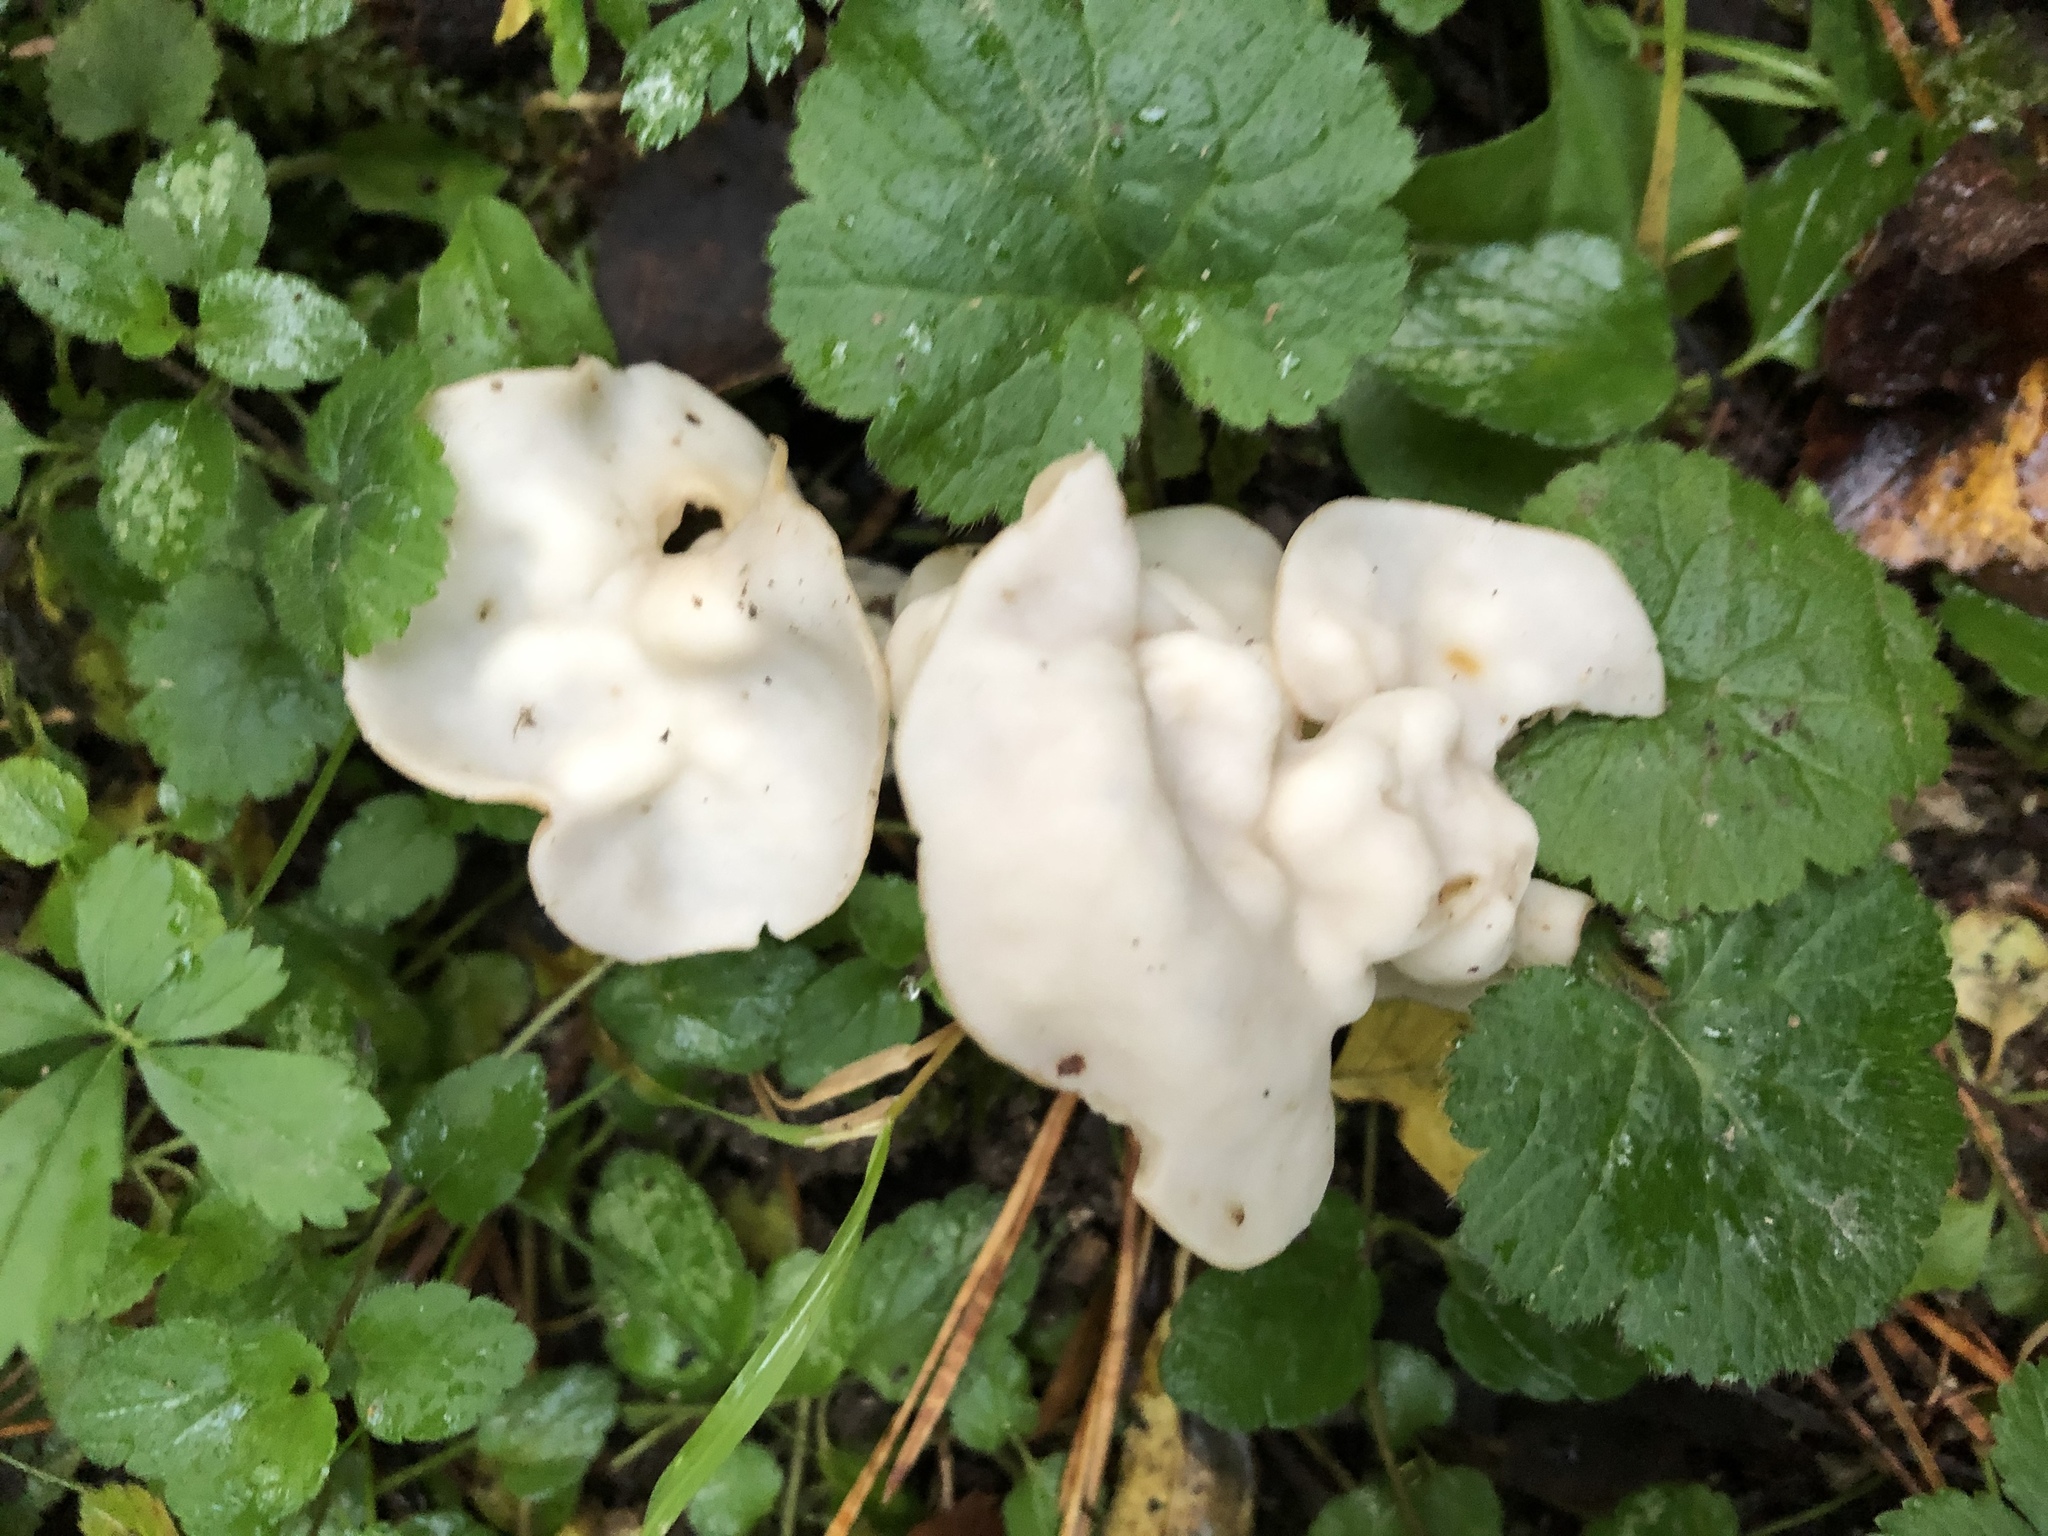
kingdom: Fungi
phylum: Ascomycota
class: Pezizomycetes
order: Pezizales
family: Helvellaceae
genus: Helvella
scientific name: Helvella crispa
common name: White saddle
